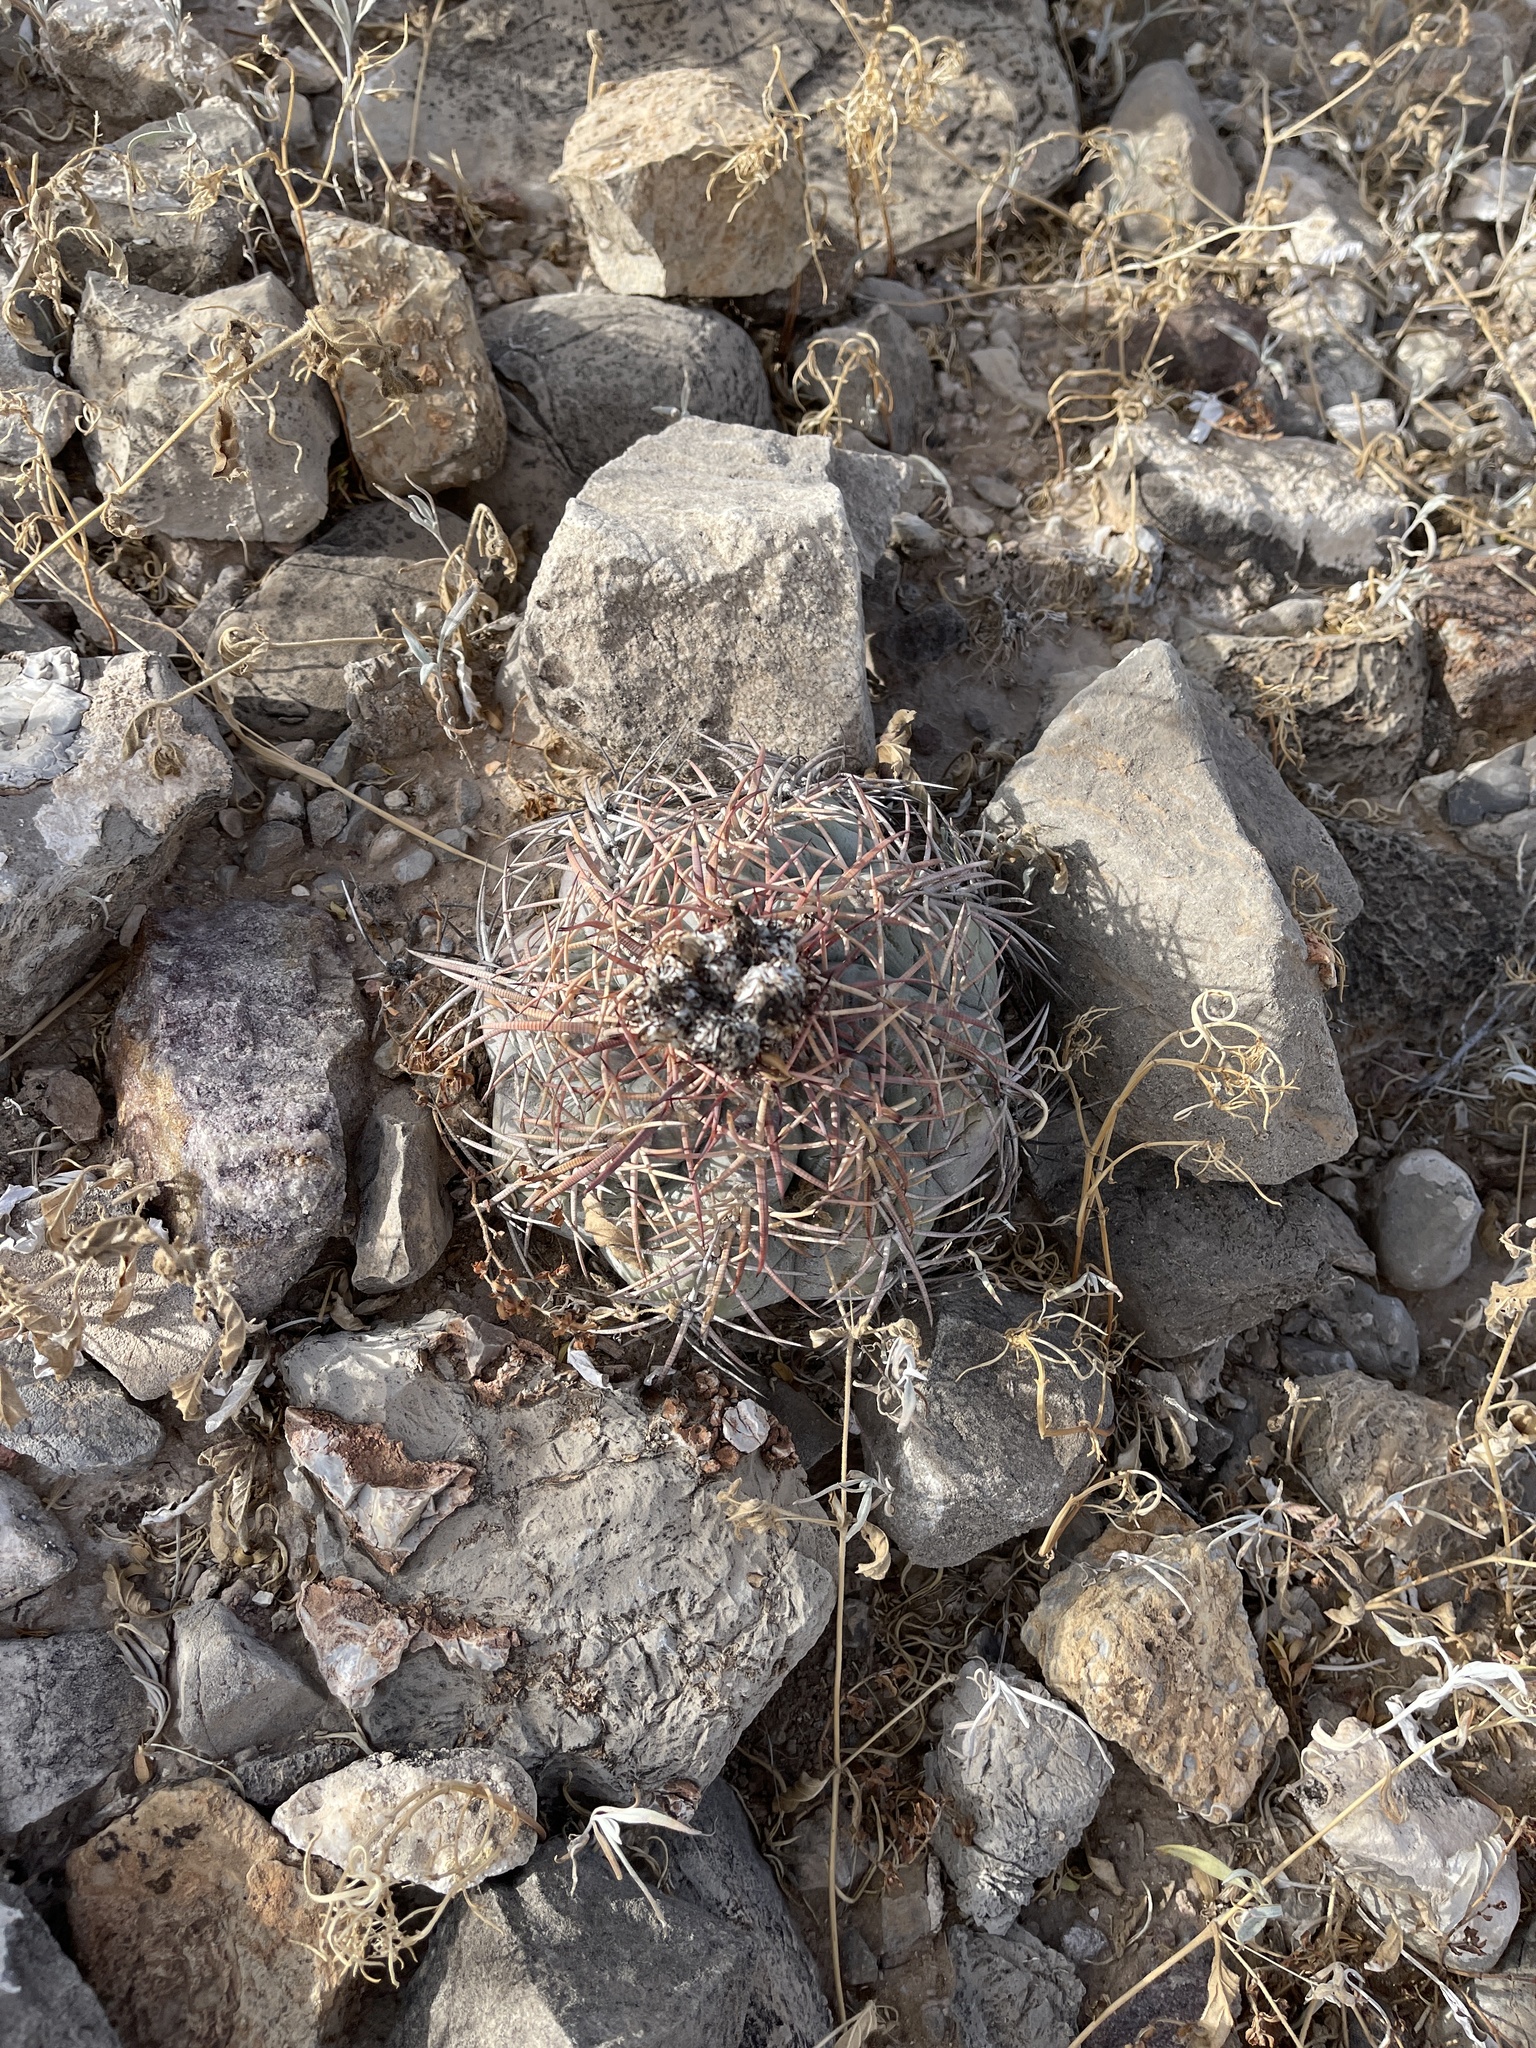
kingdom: Plantae
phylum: Tracheophyta
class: Magnoliopsida
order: Caryophyllales
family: Cactaceae
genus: Echinocactus
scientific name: Echinocactus horizonthalonius
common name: Devilshead
